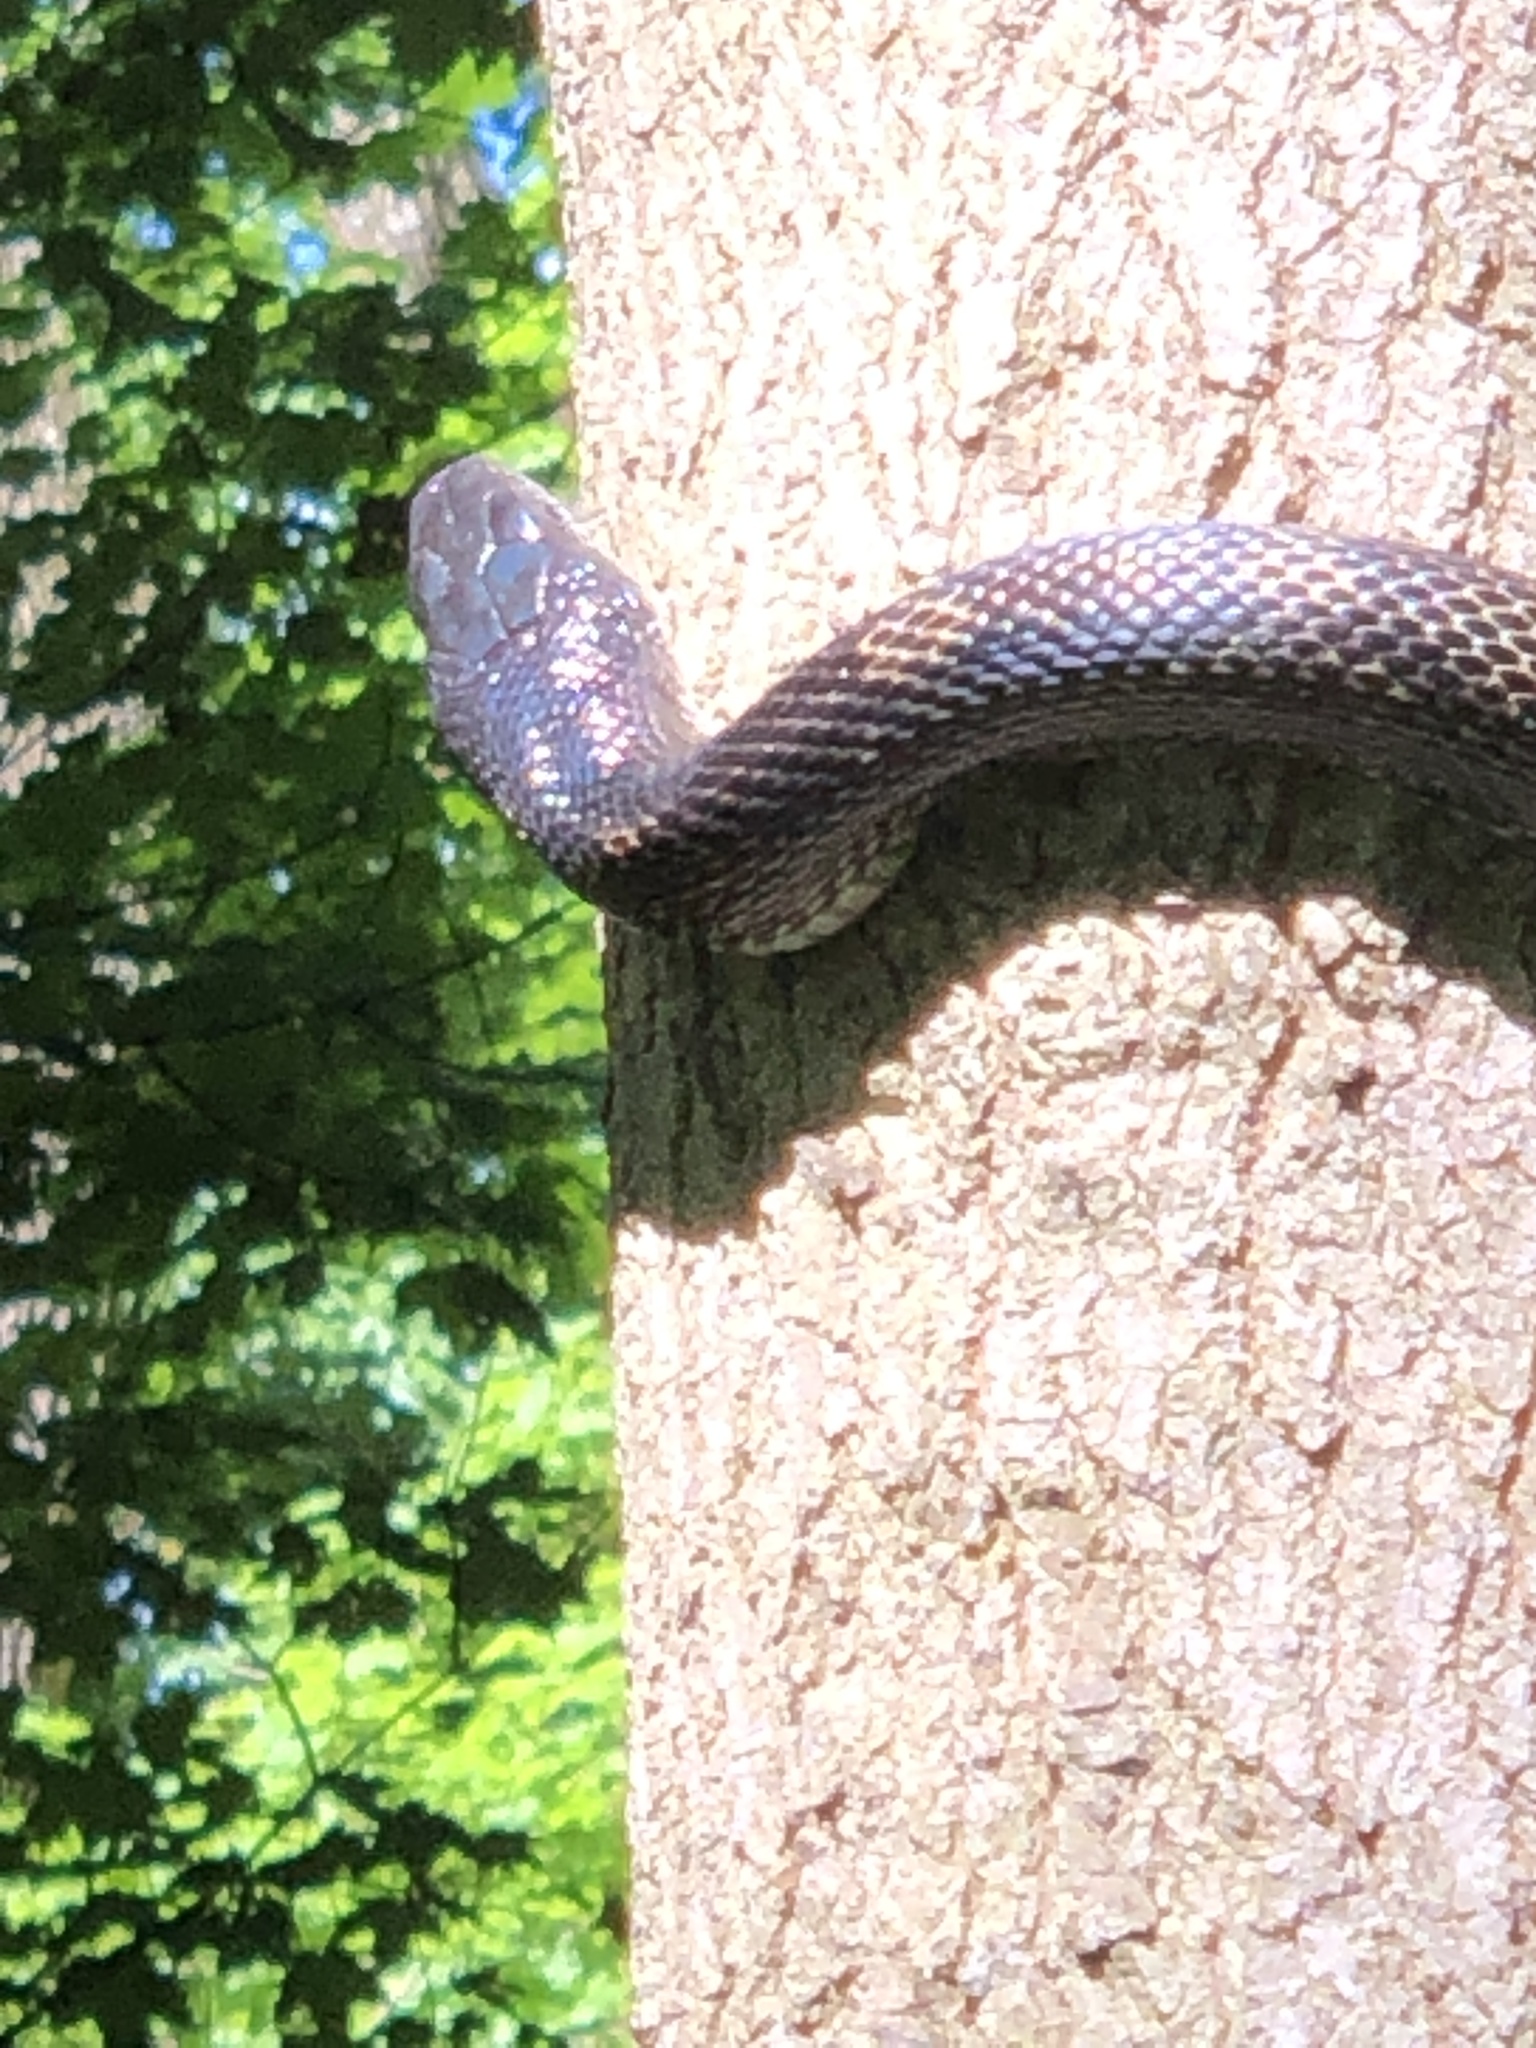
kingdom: Animalia
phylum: Chordata
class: Squamata
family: Colubridae
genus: Pantherophis
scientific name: Pantherophis spiloides
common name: Gray rat snake
